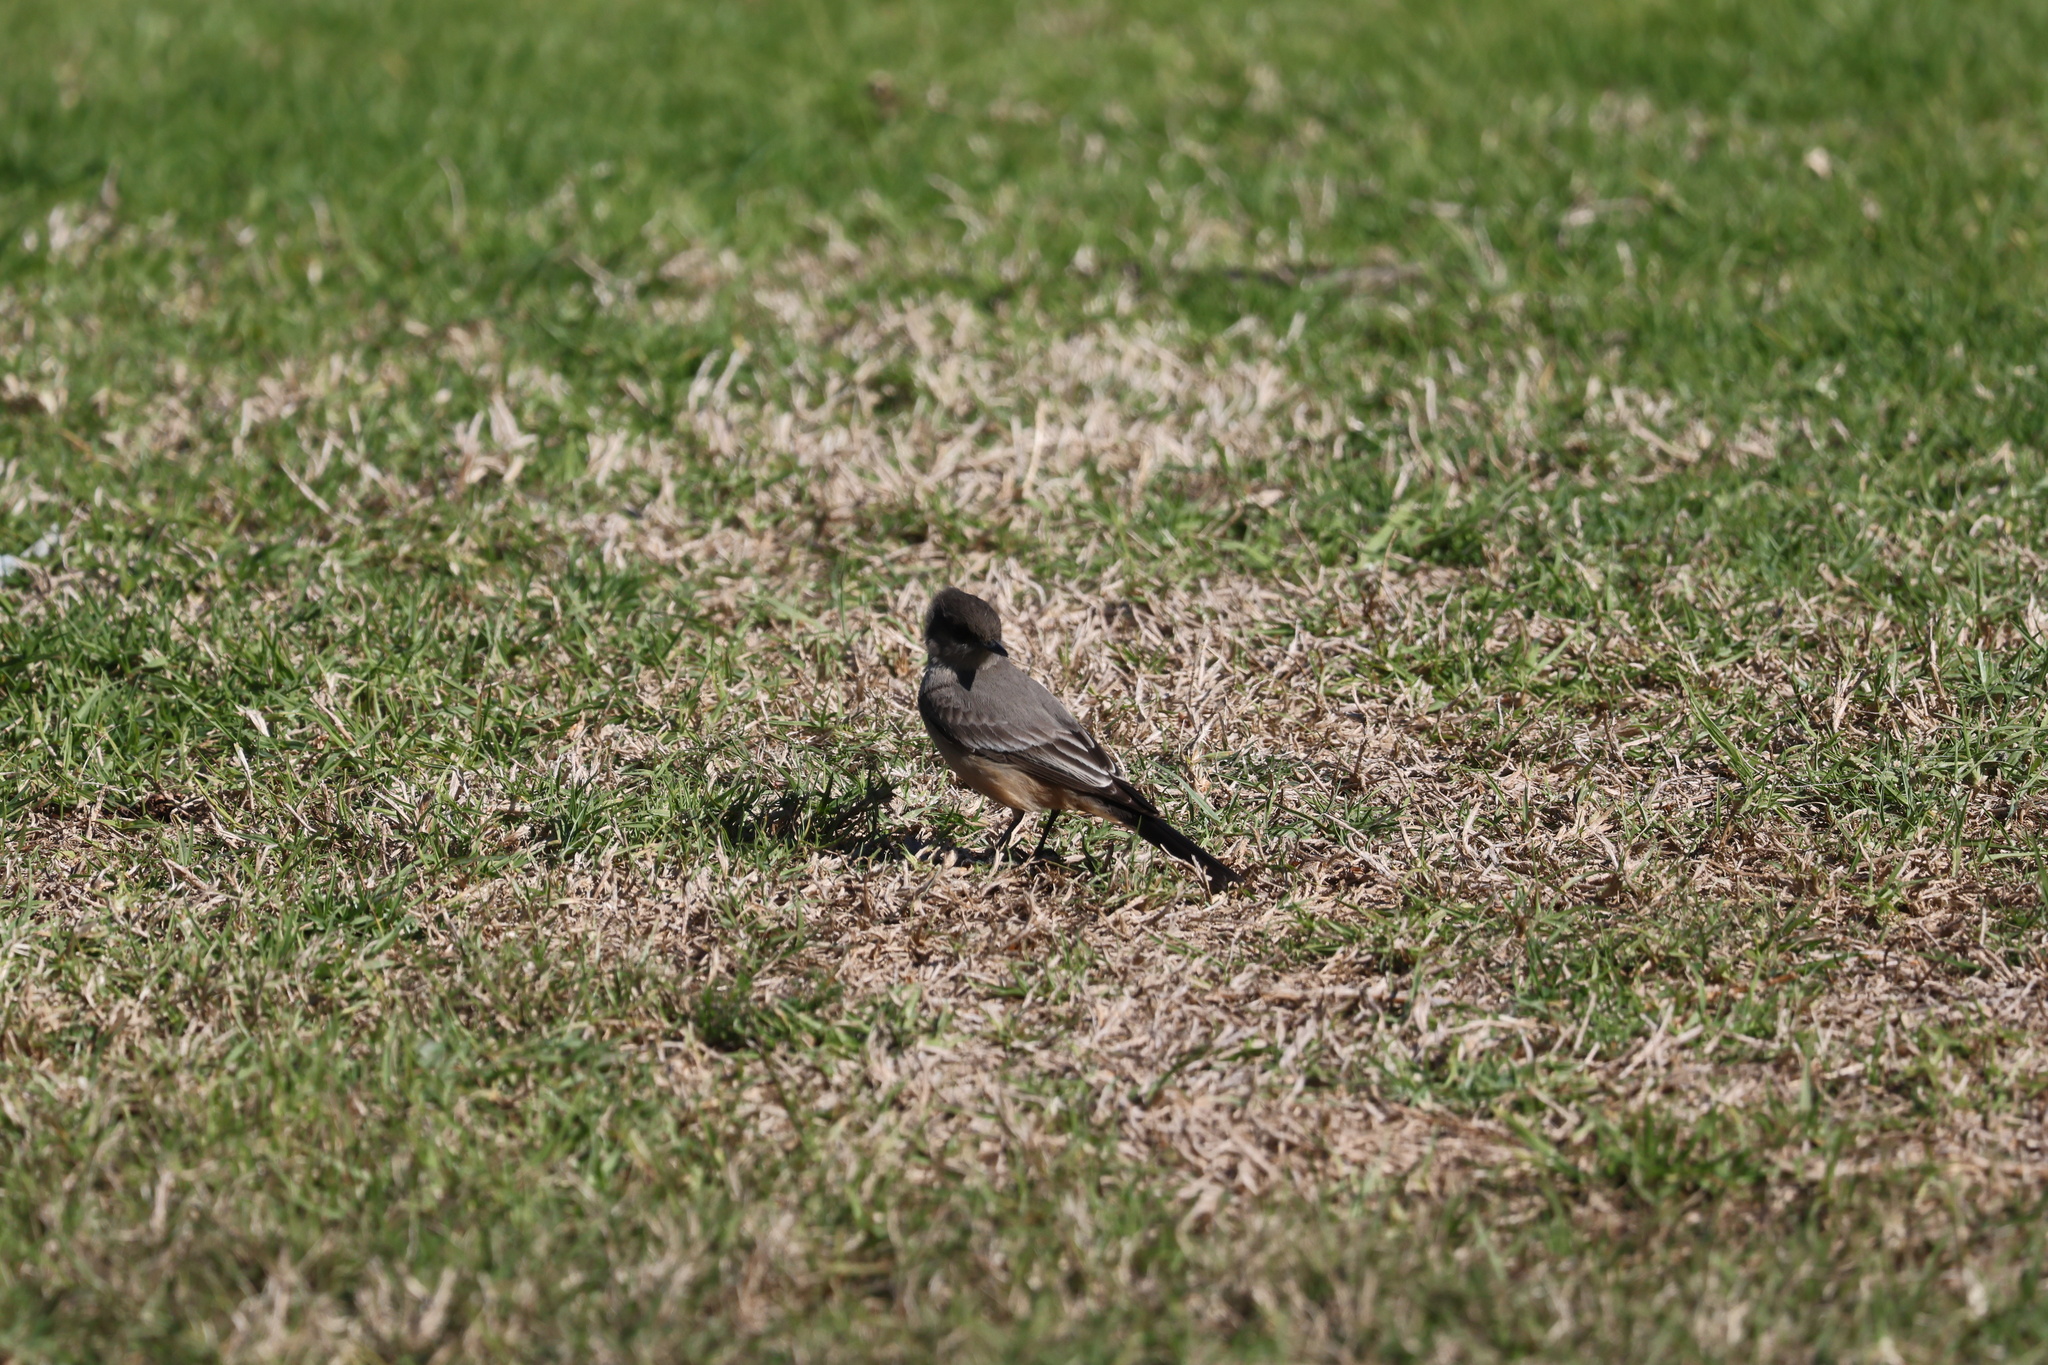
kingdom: Animalia
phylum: Chordata
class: Aves
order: Passeriformes
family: Tyrannidae
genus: Sayornis
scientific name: Sayornis saya
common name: Say's phoebe
